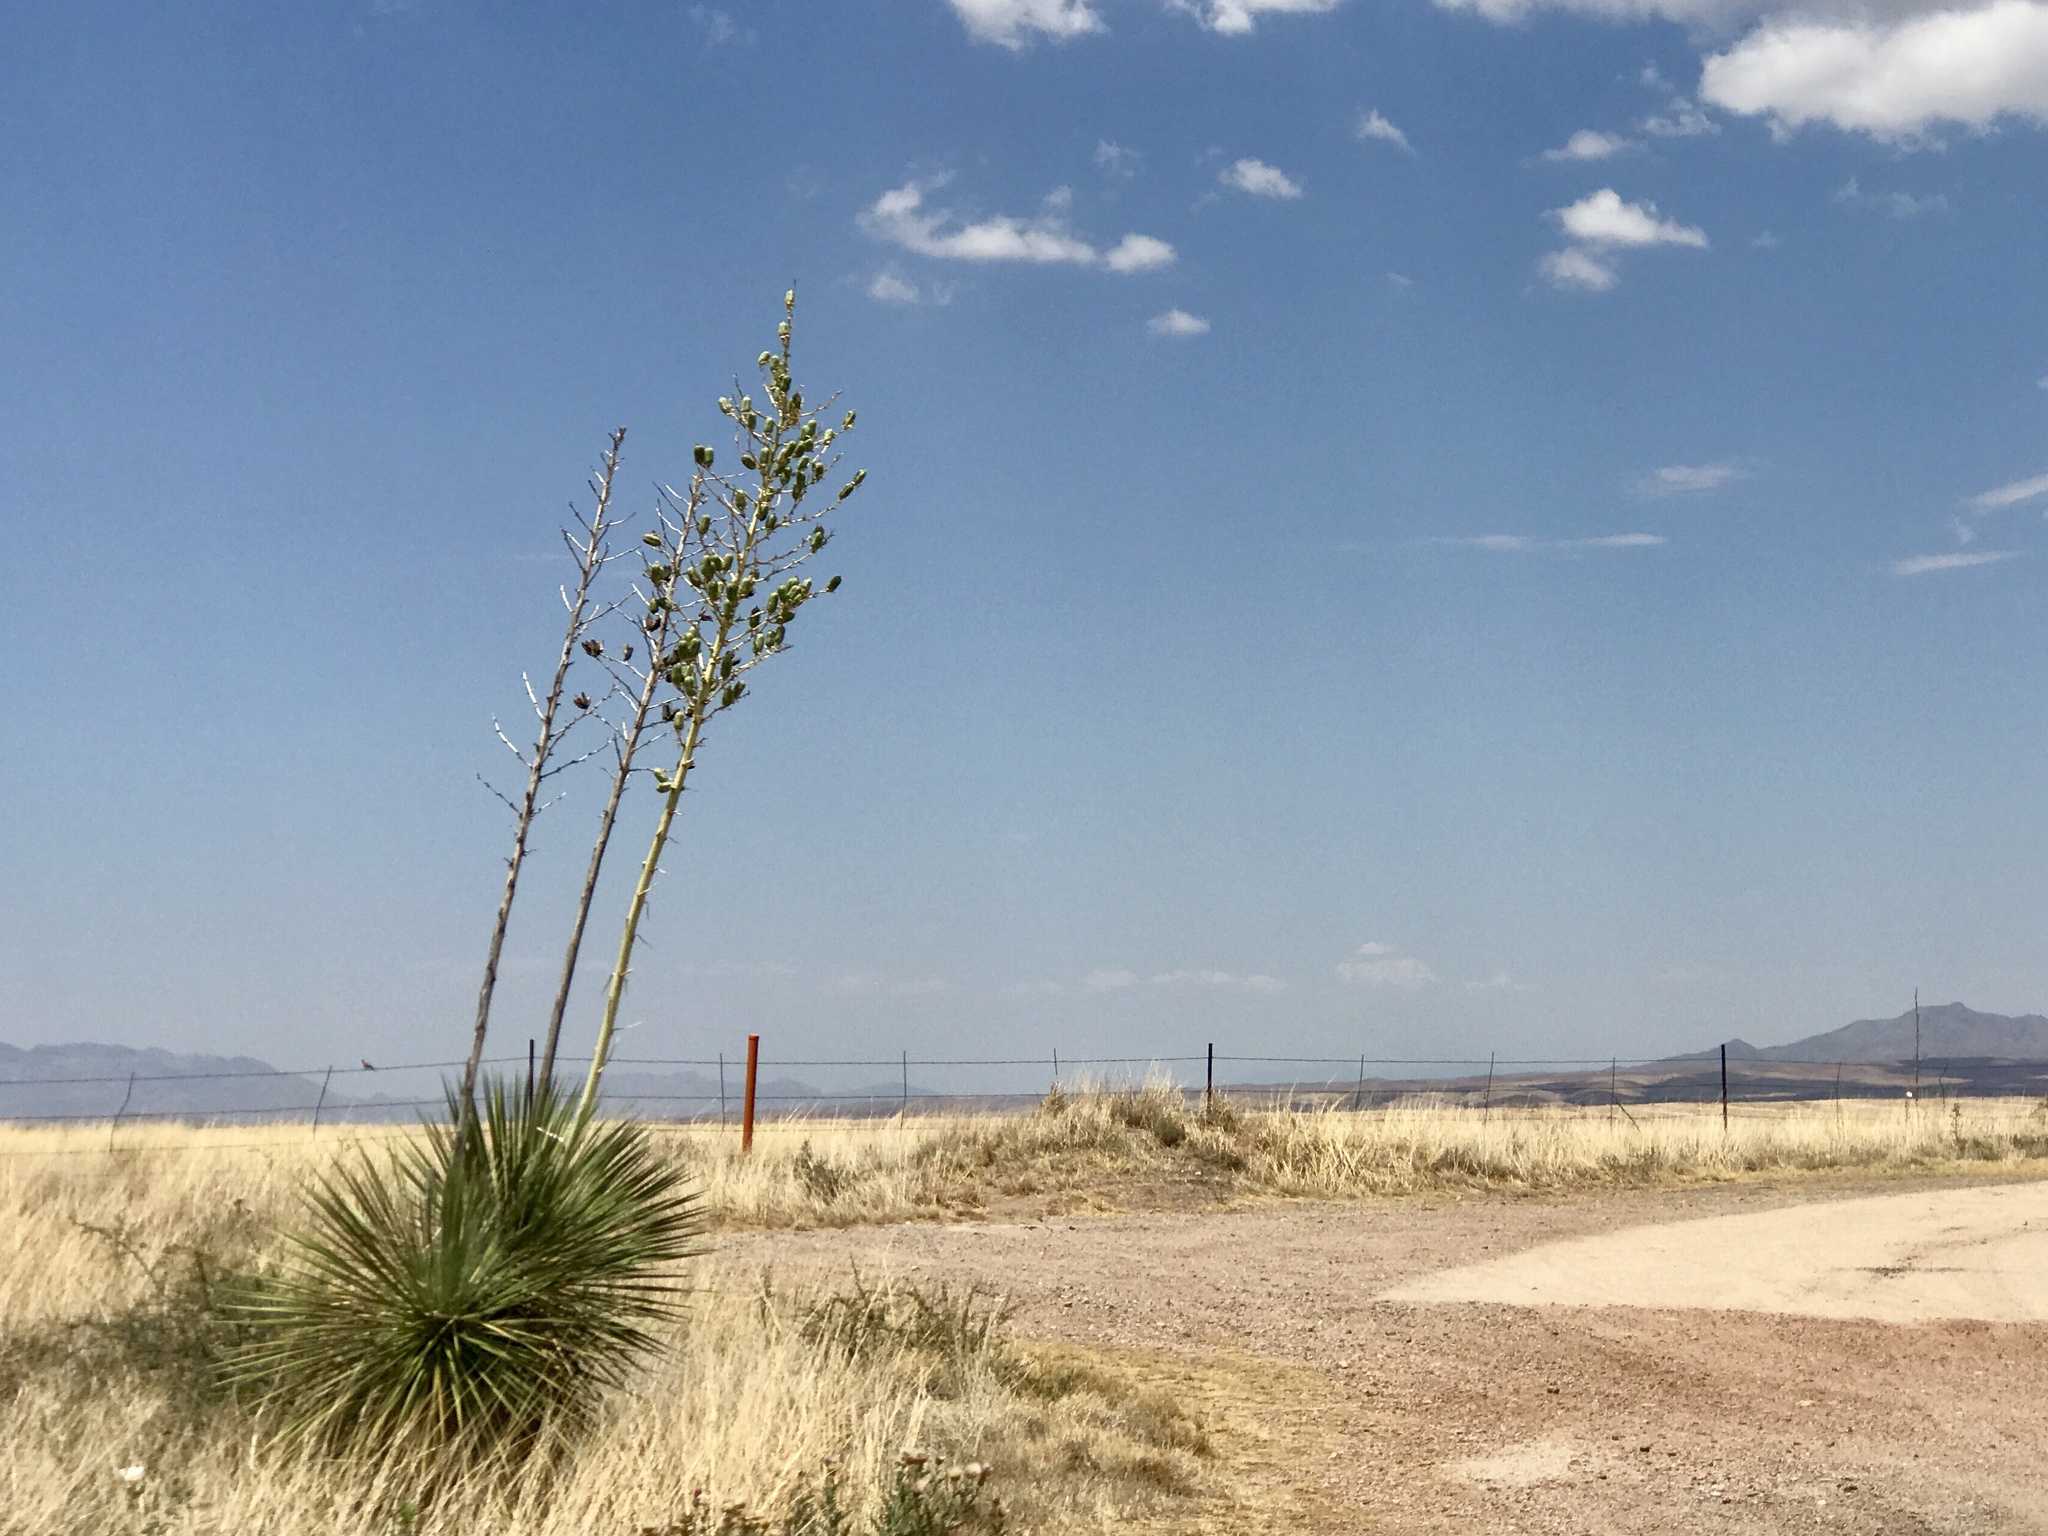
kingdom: Plantae
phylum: Tracheophyta
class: Liliopsida
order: Asparagales
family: Asparagaceae
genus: Yucca
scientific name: Yucca elata
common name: Palmella
